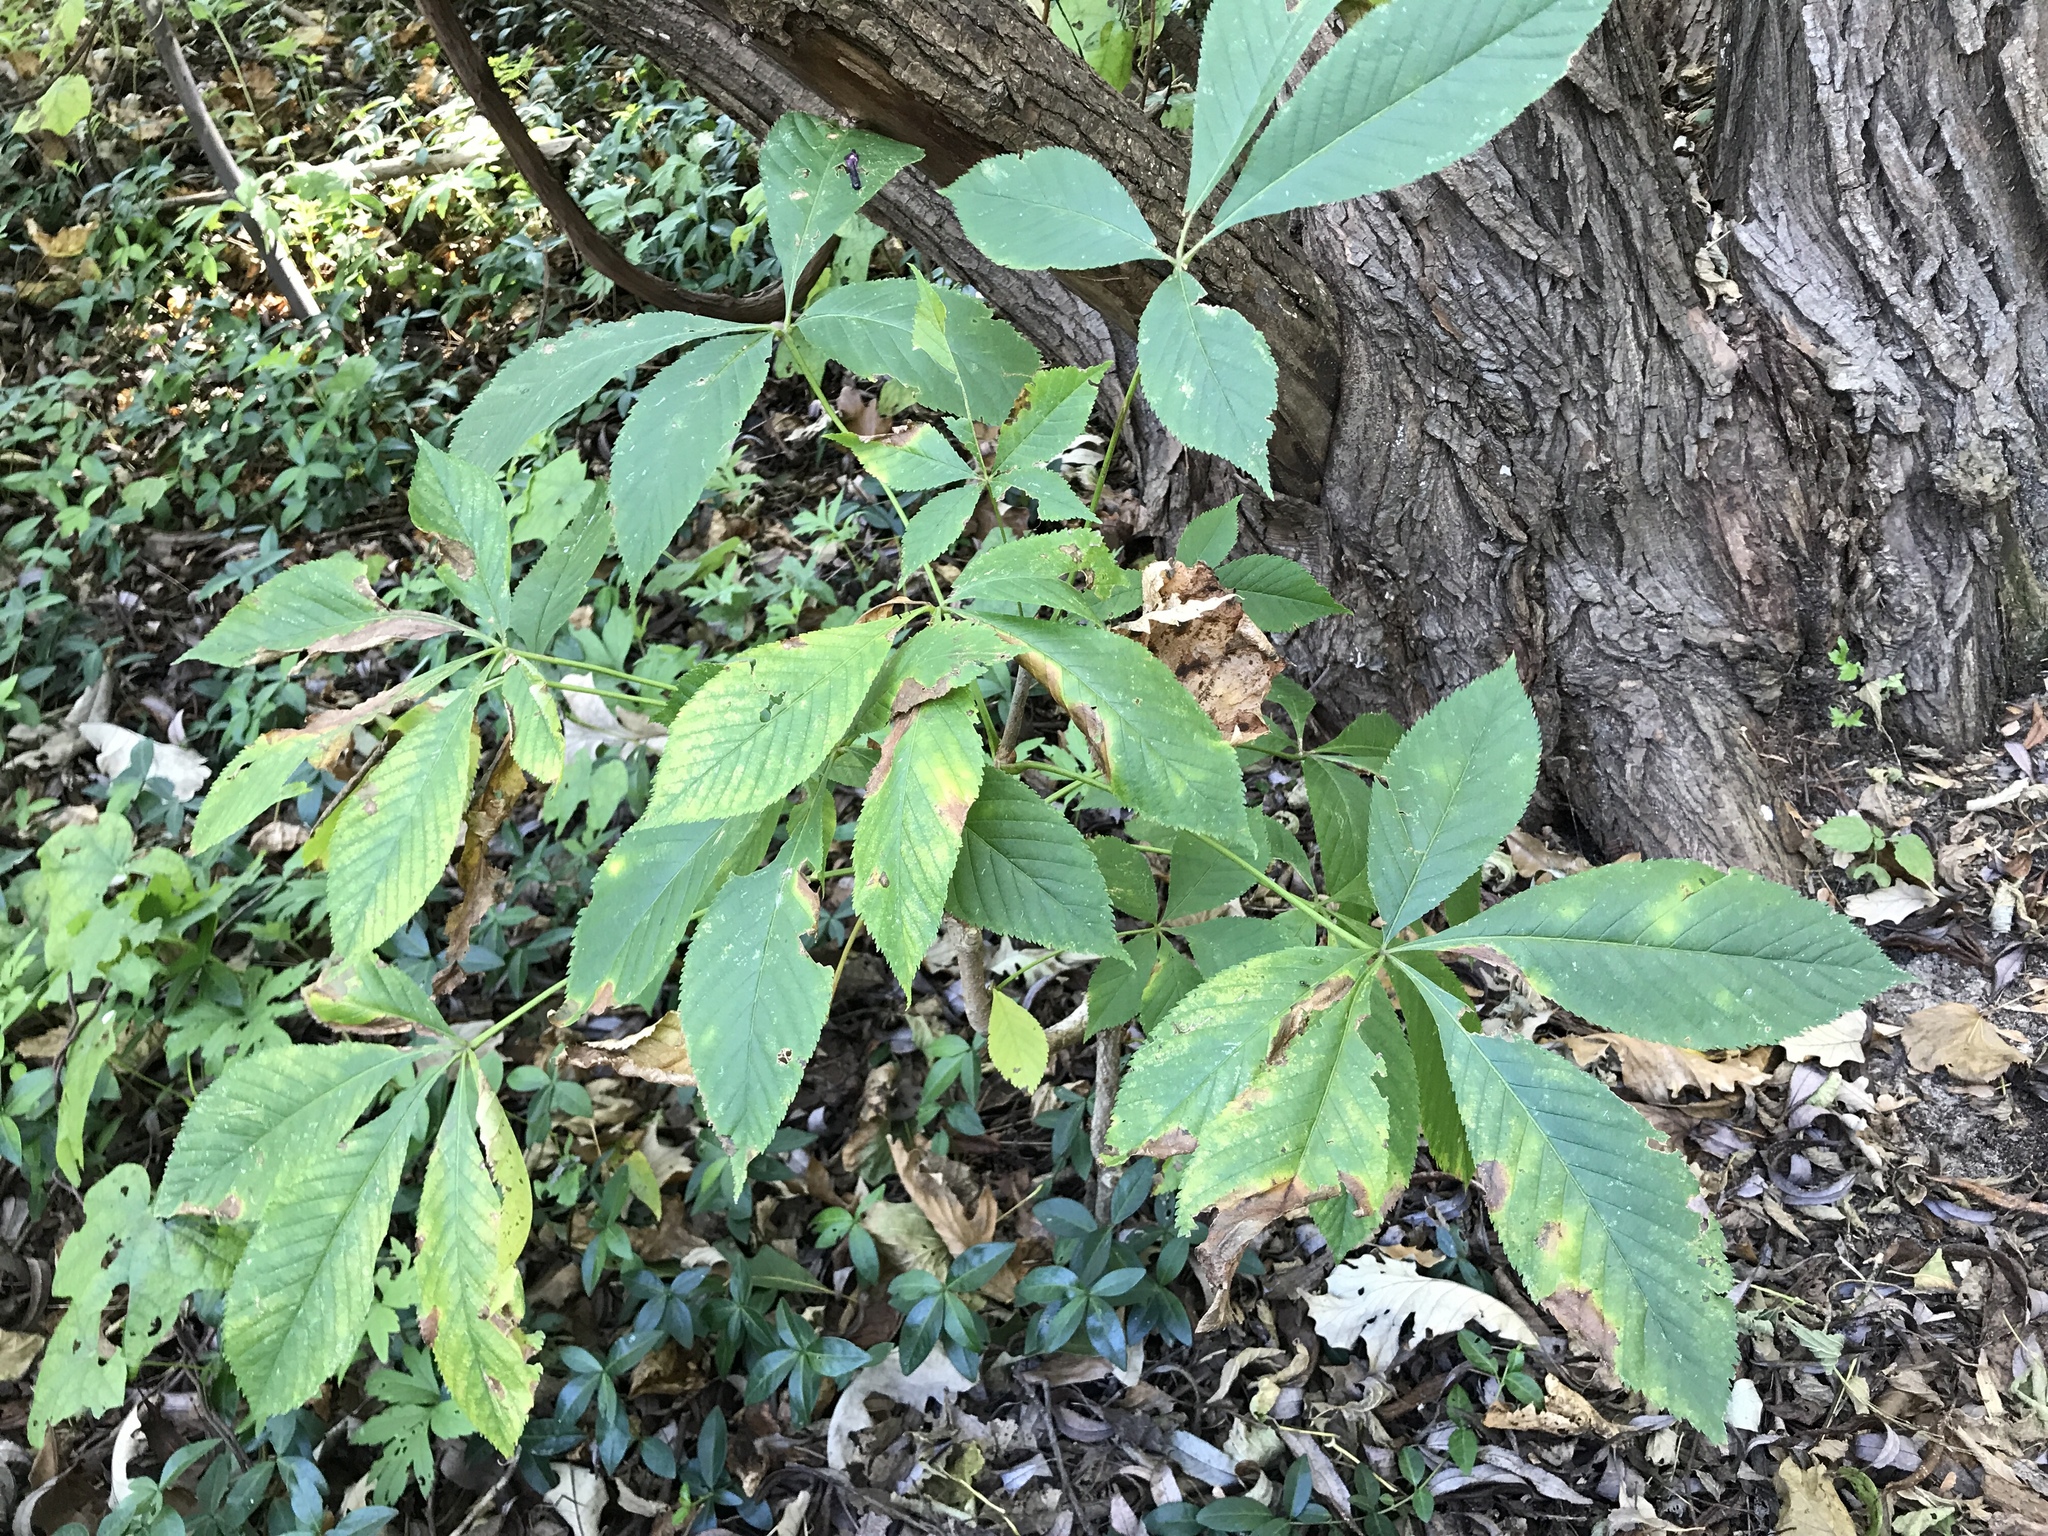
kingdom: Plantae
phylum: Tracheophyta
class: Magnoliopsida
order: Sapindales
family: Sapindaceae
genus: Aesculus
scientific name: Aesculus glabra
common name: Ohio buckeye
